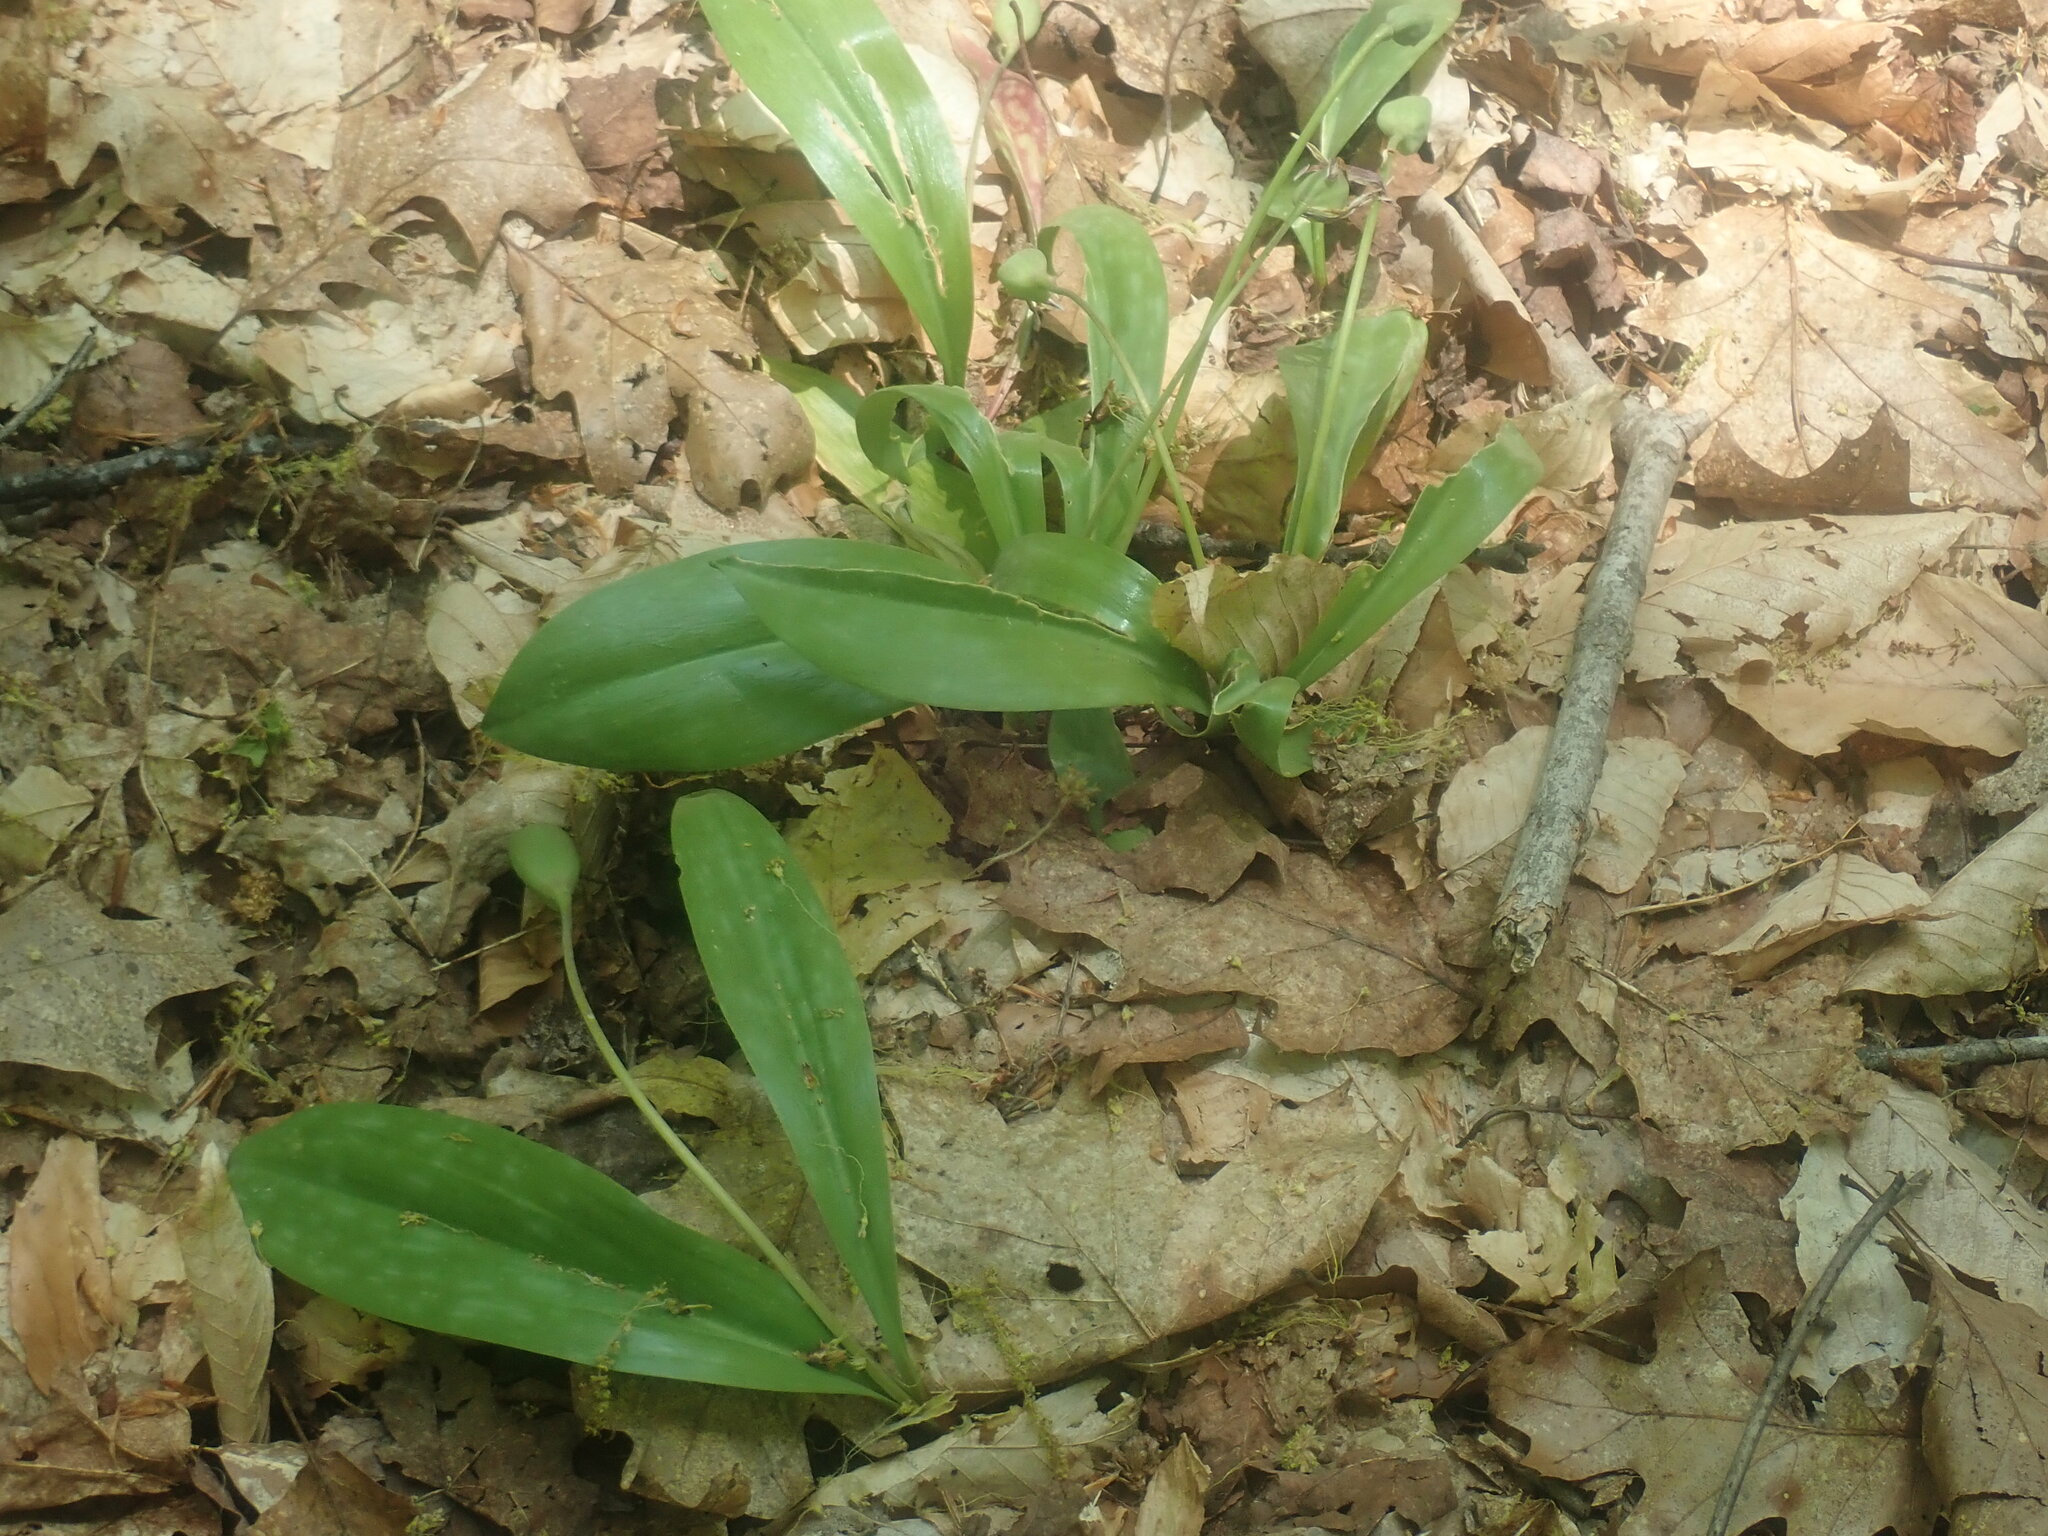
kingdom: Plantae
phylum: Tracheophyta
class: Liliopsida
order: Liliales
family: Liliaceae
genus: Erythronium
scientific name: Erythronium americanum
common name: Yellow adder's-tongue
